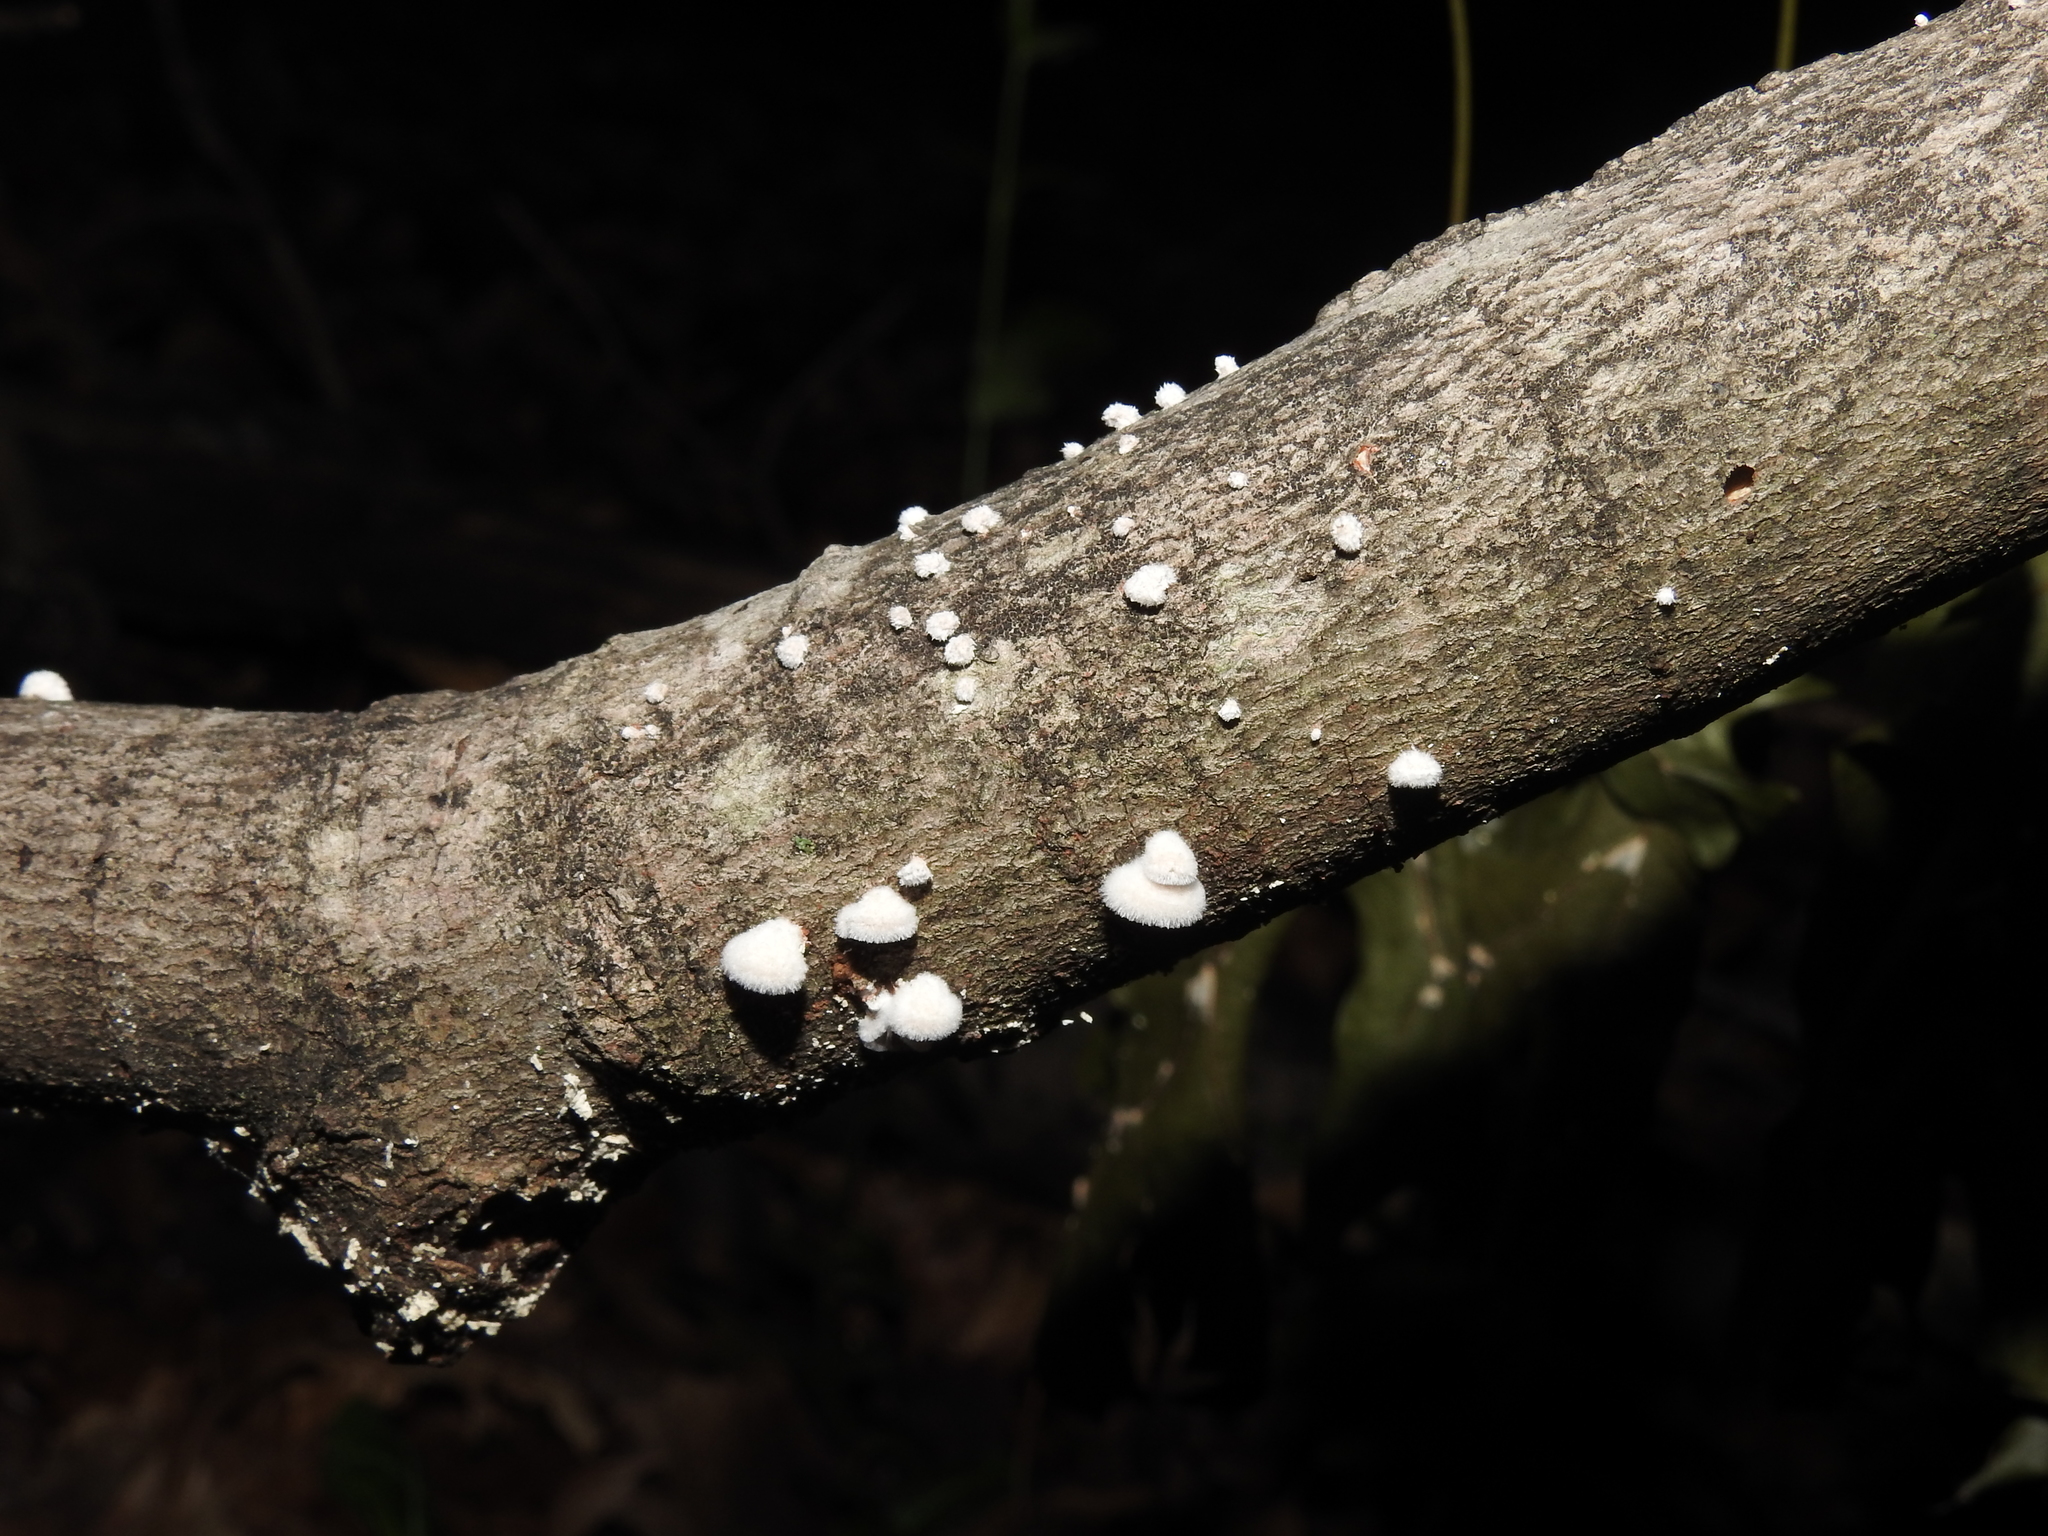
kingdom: Fungi
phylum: Basidiomycota
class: Agaricomycetes
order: Agaricales
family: Schizophyllaceae
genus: Schizophyllum
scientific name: Schizophyllum commune
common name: Common porecrust
